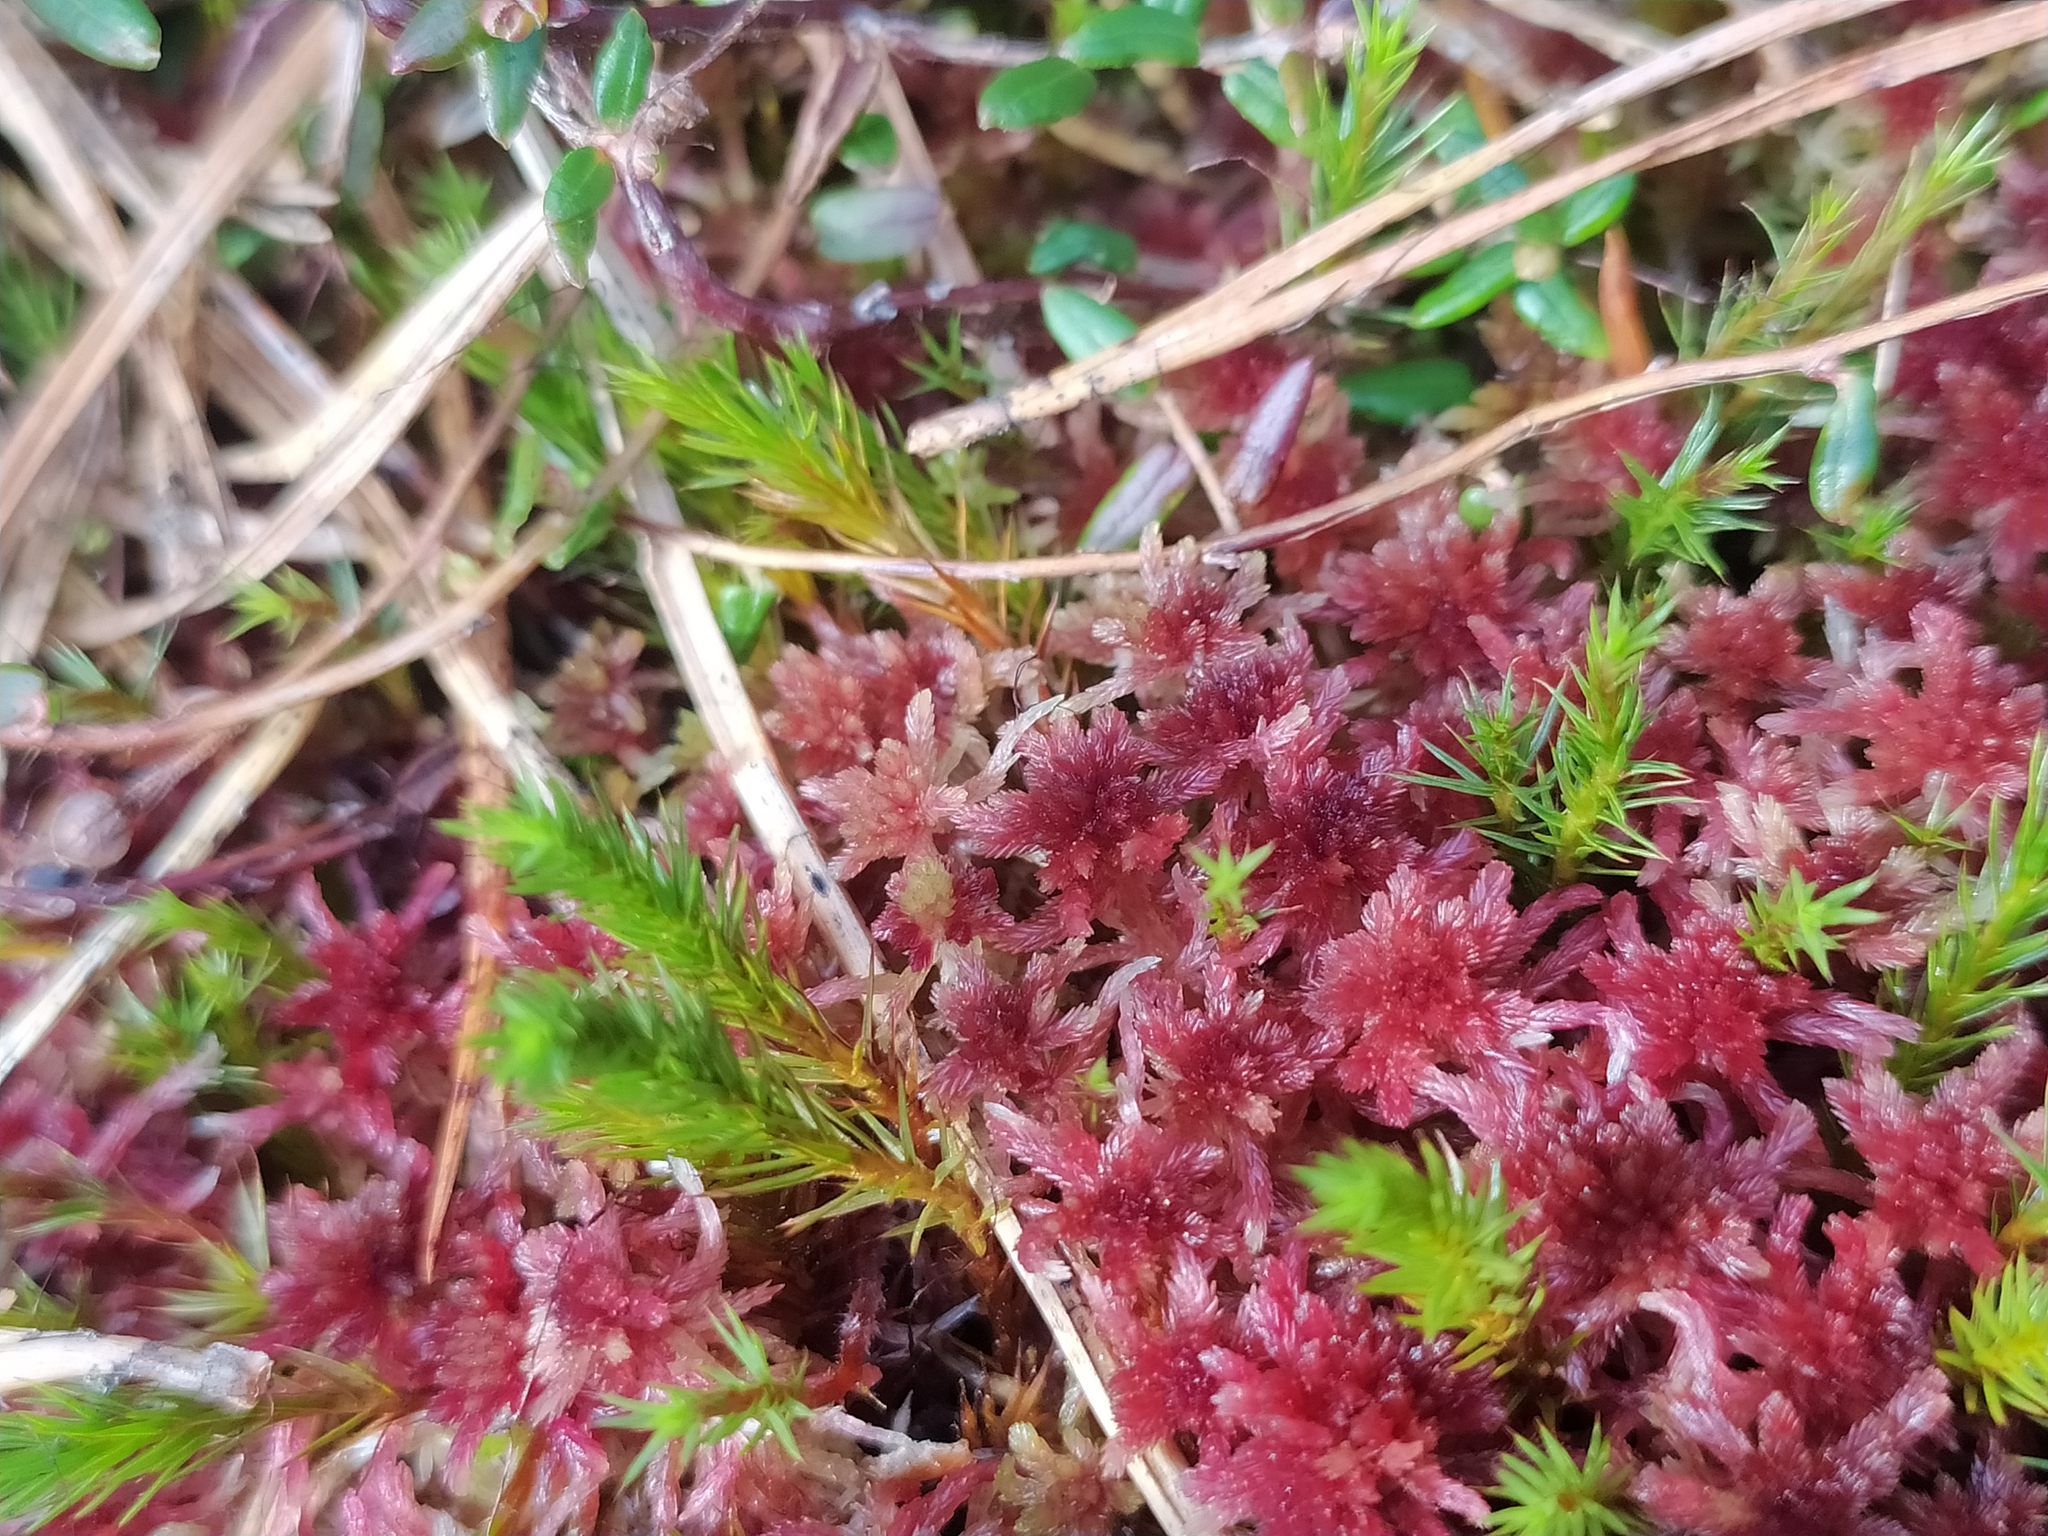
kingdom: Plantae
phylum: Bryophyta
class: Sphagnopsida
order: Sphagnales
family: Sphagnaceae
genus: Sphagnum
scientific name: Sphagnum rubellum
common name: Red peat moss
